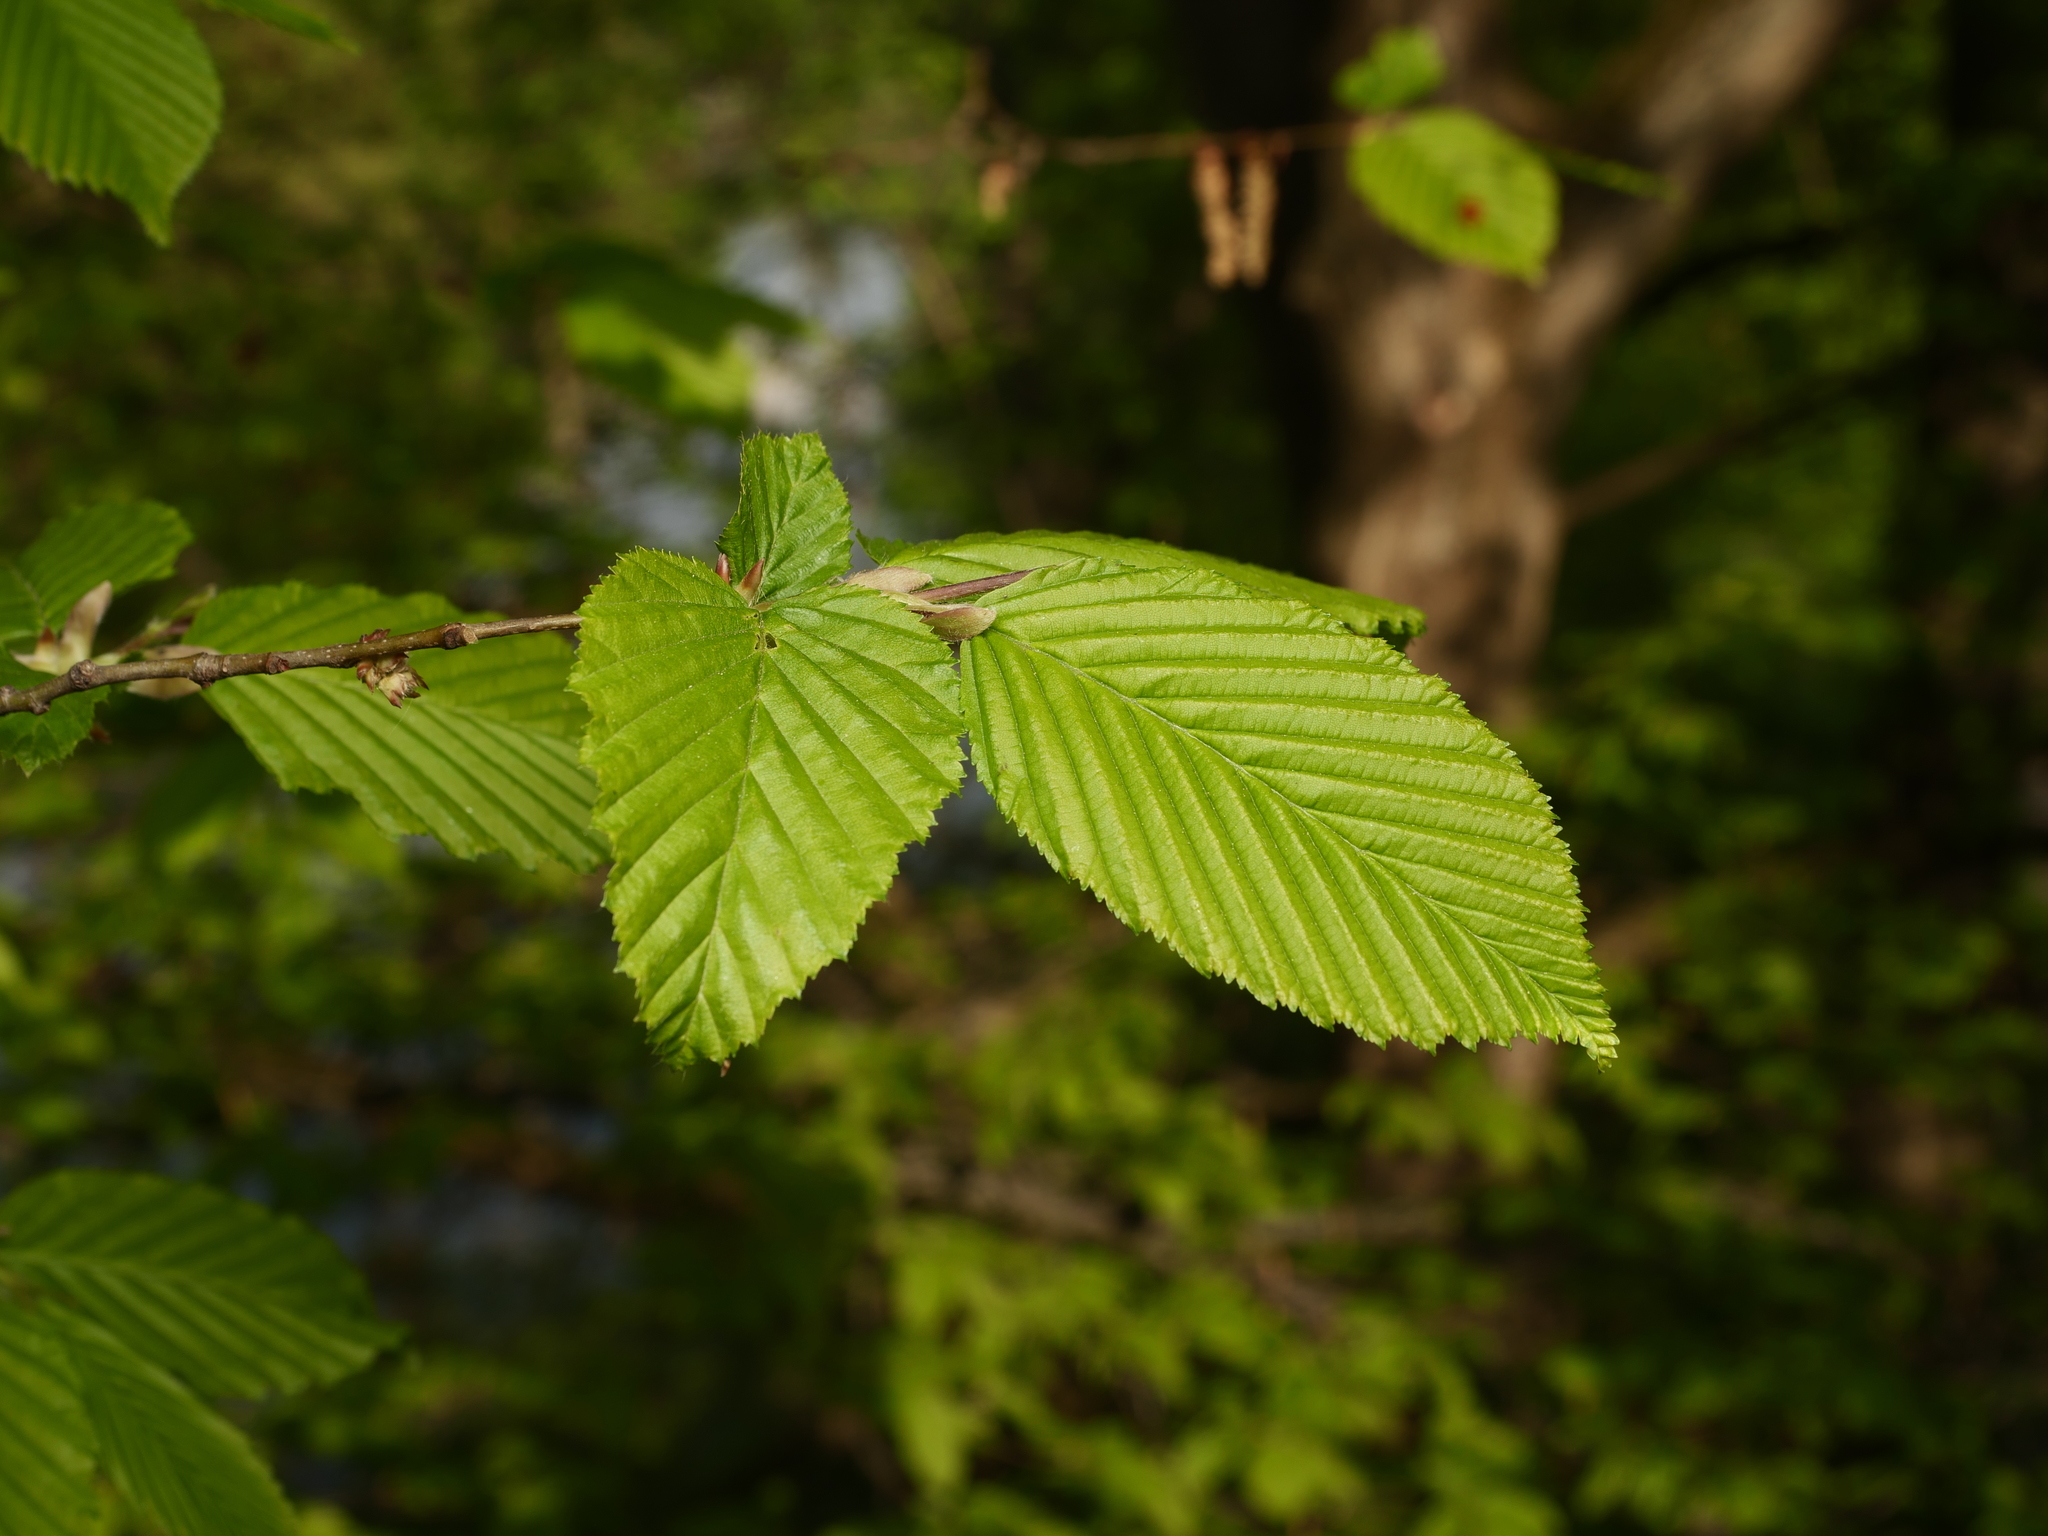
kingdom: Plantae
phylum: Tracheophyta
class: Magnoliopsida
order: Fagales
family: Betulaceae
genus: Carpinus
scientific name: Carpinus betulus
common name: Hornbeam
